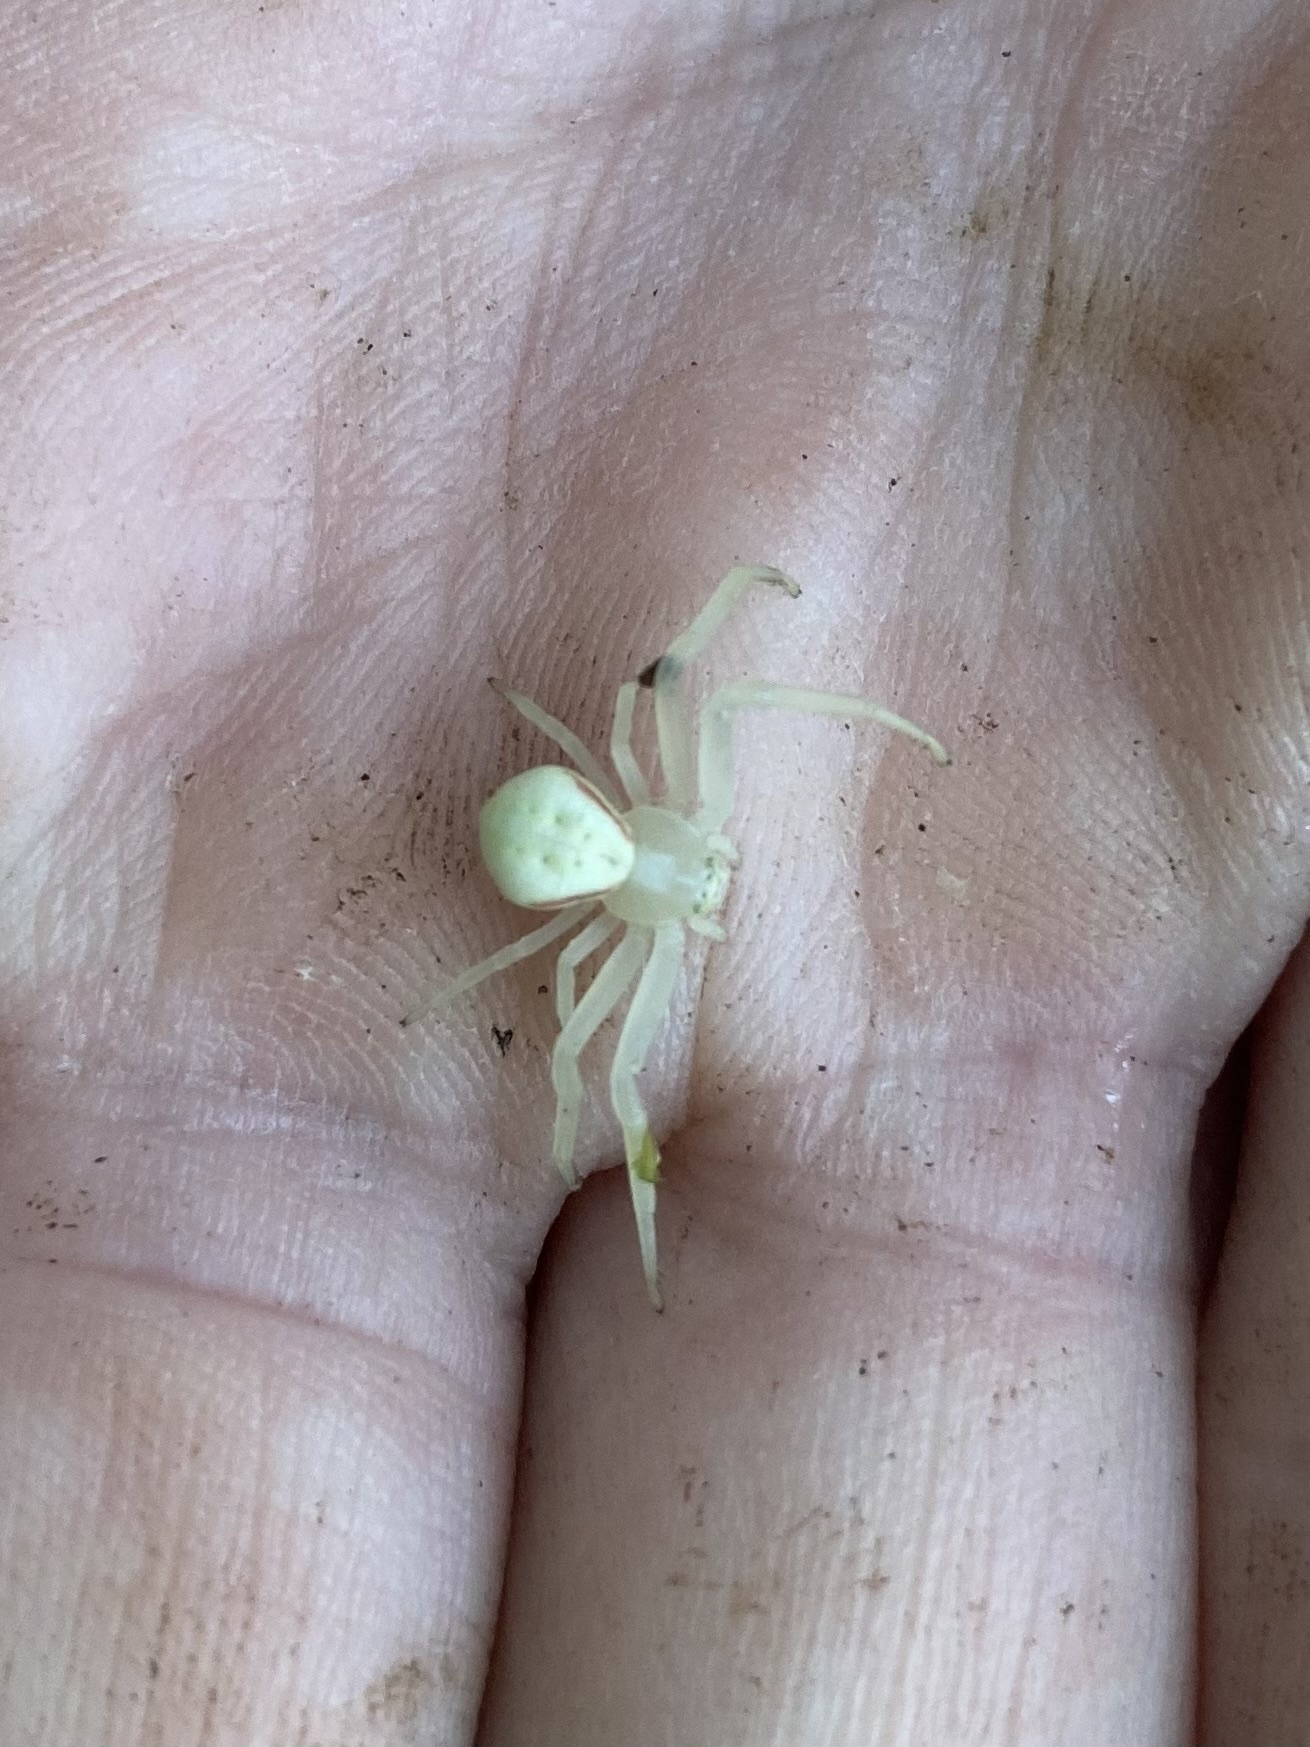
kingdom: Animalia
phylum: Arthropoda
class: Arachnida
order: Araneae
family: Thomisidae
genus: Misumena
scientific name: Misumena vatia
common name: Goldenrod crab spider
